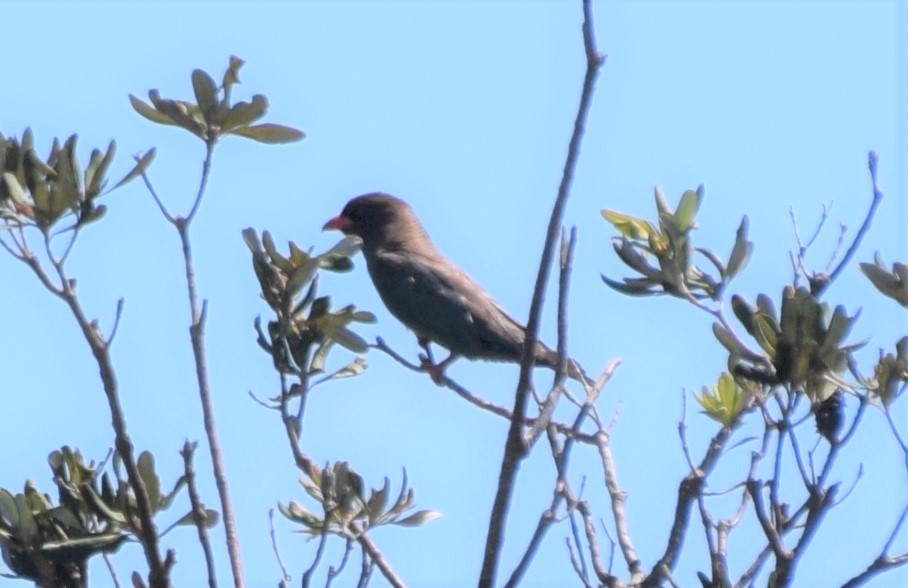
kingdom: Animalia
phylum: Chordata
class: Aves
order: Coraciiformes
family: Coraciidae
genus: Eurystomus
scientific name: Eurystomus orientalis
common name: Oriental dollarbird
